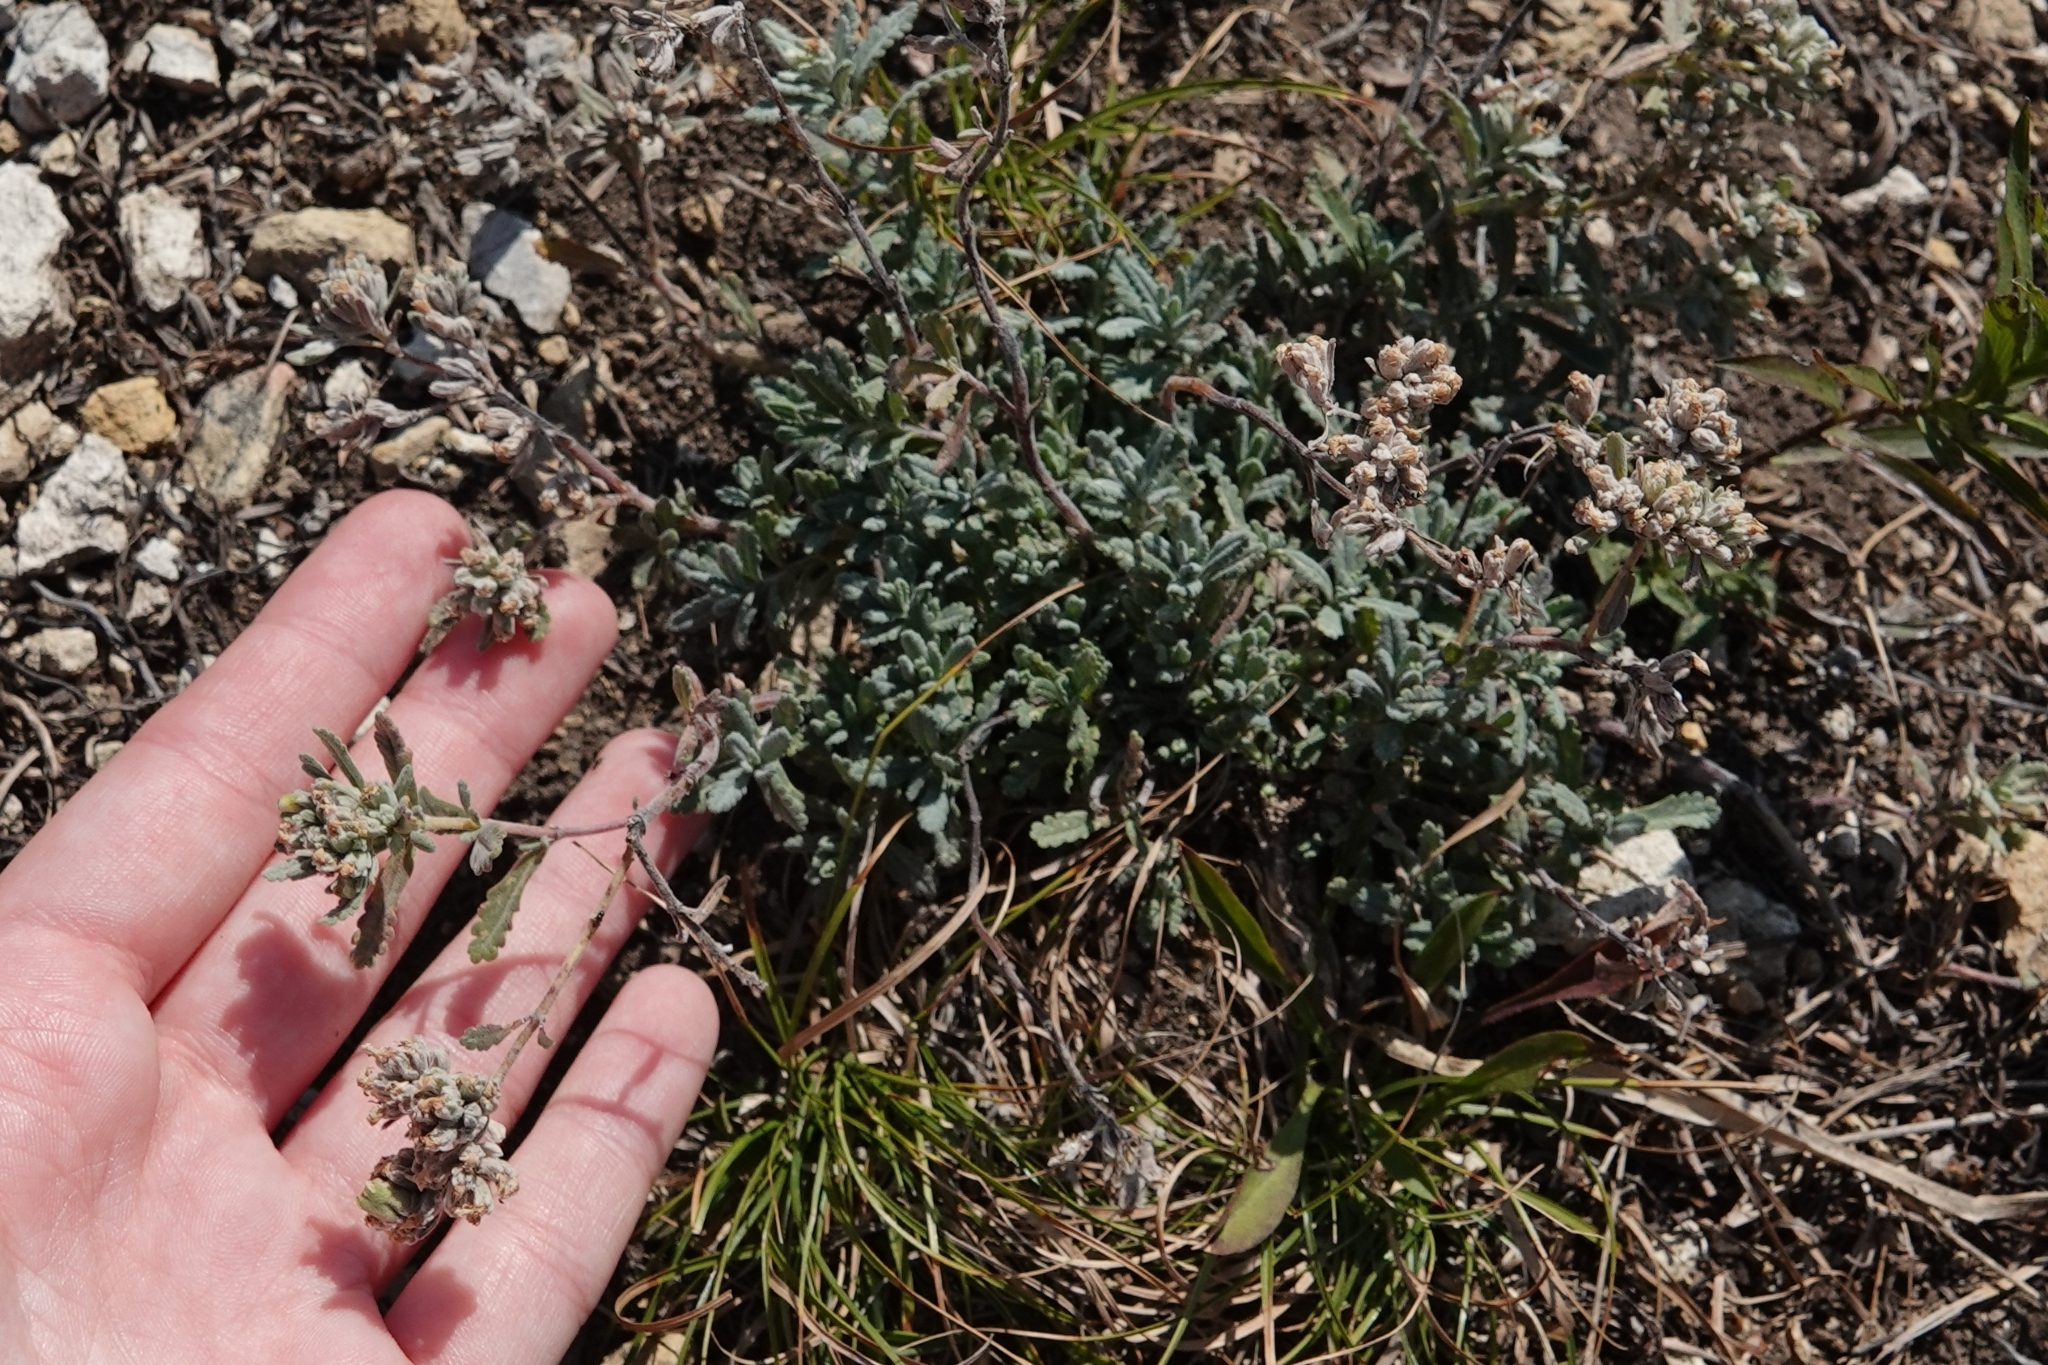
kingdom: Plantae
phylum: Tracheophyta
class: Magnoliopsida
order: Lamiales
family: Lamiaceae
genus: Teucrium
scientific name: Teucrium polium
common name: Poley
